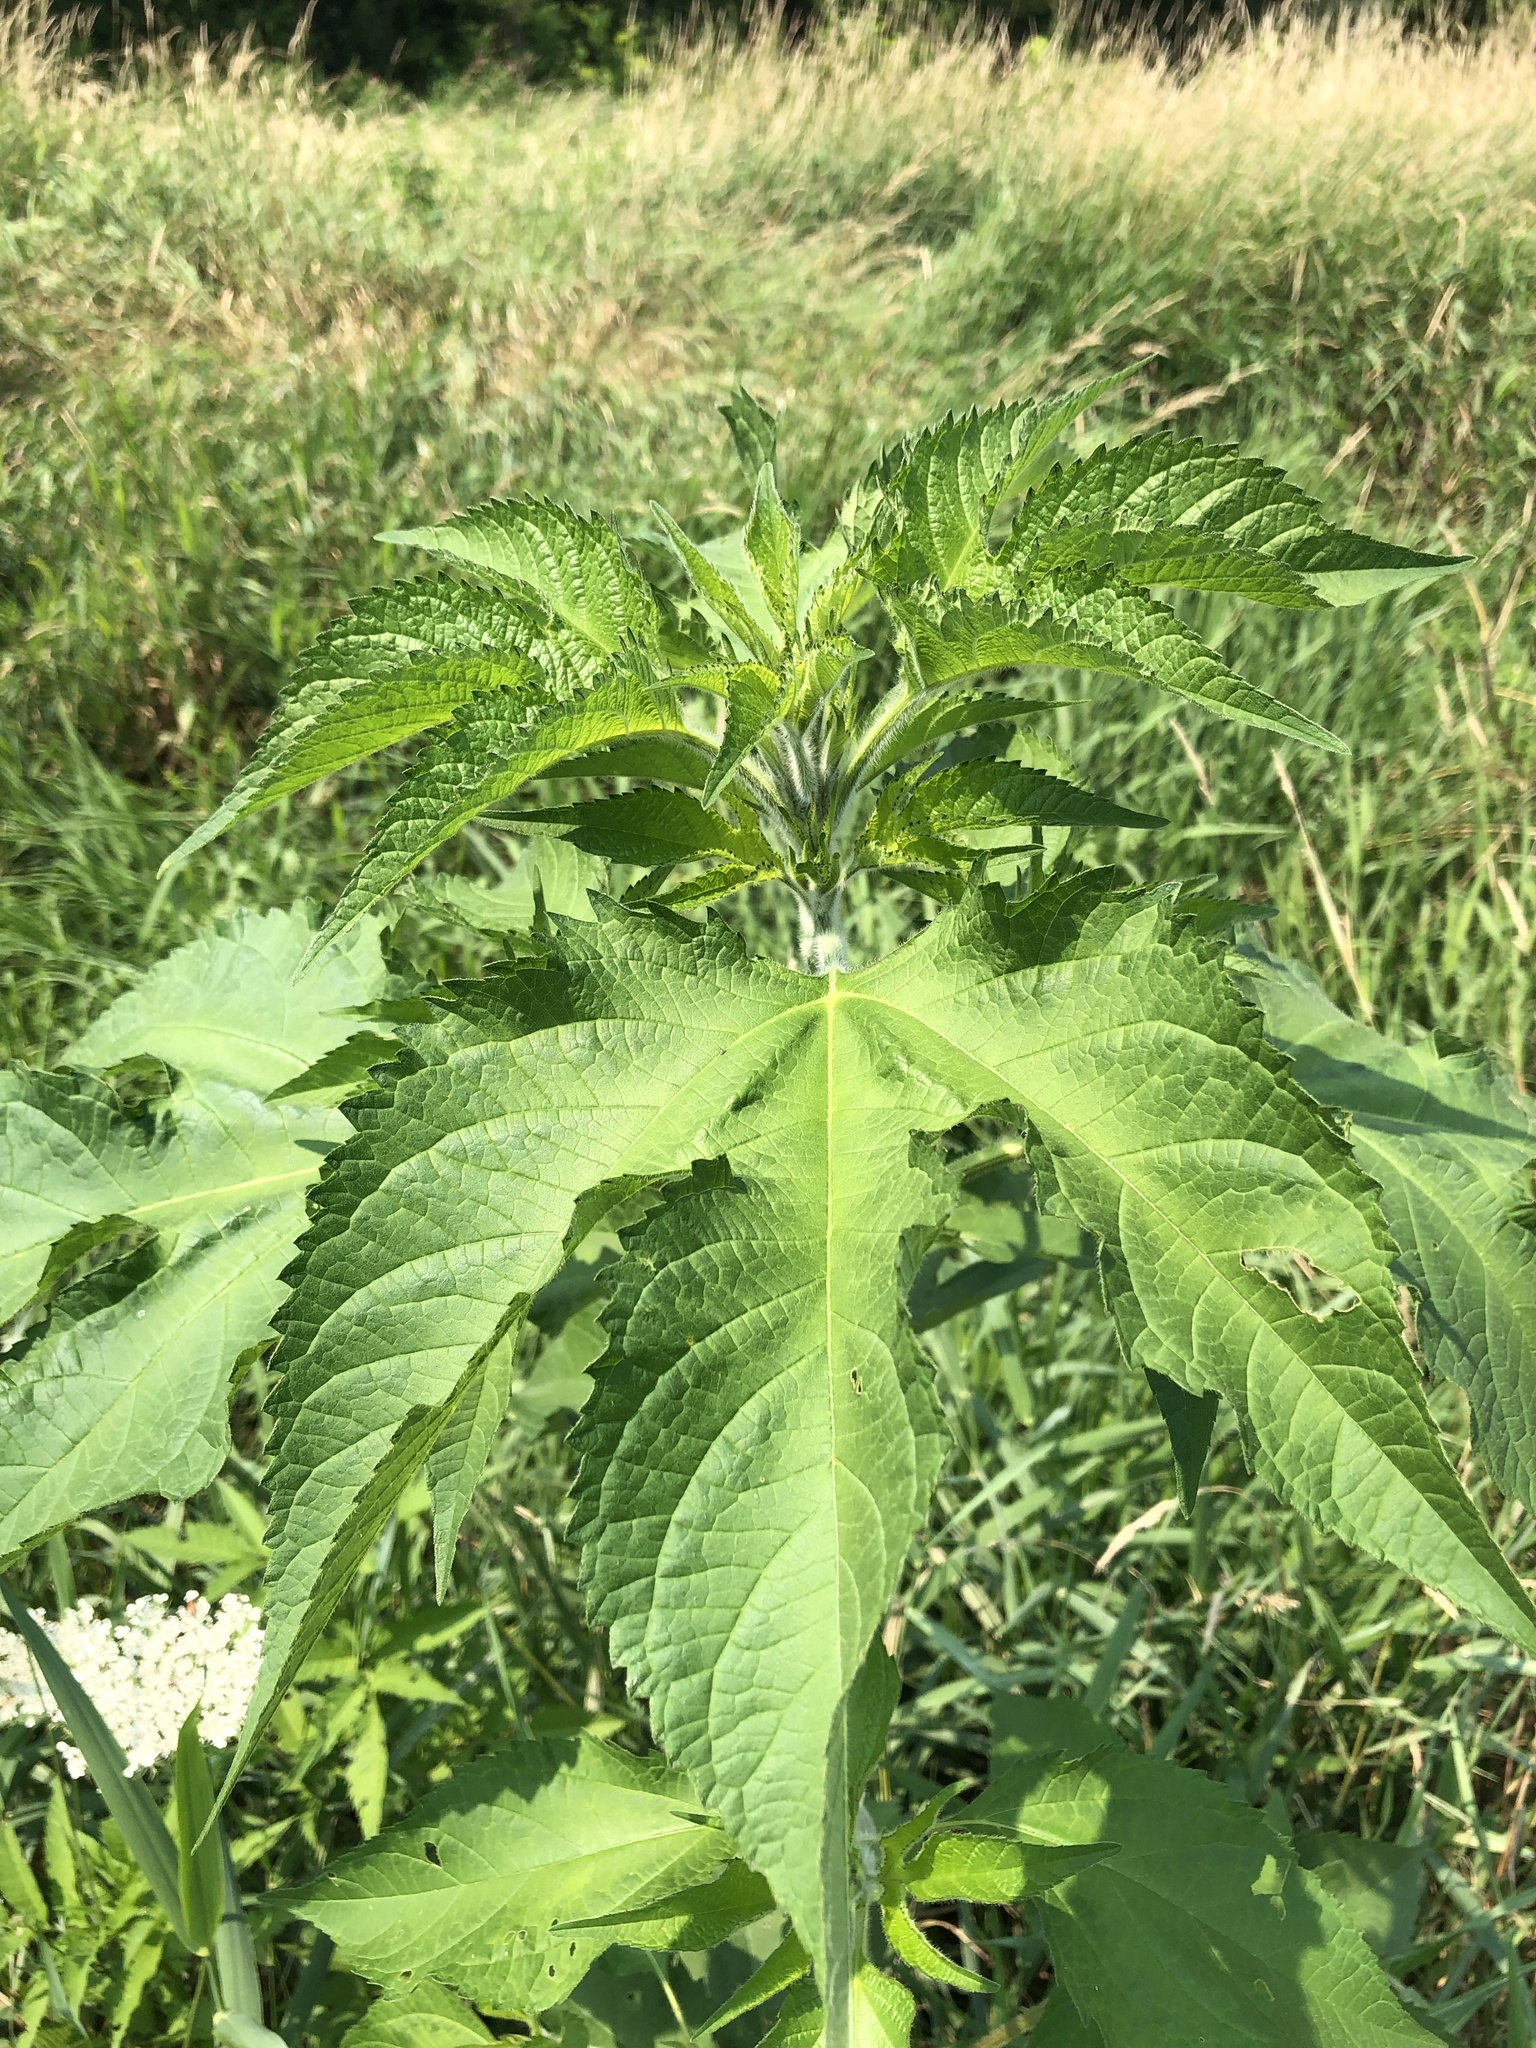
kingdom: Plantae
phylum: Tracheophyta
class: Magnoliopsida
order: Asterales
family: Asteraceae
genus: Ambrosia
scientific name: Ambrosia trifida
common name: Giant ragweed
